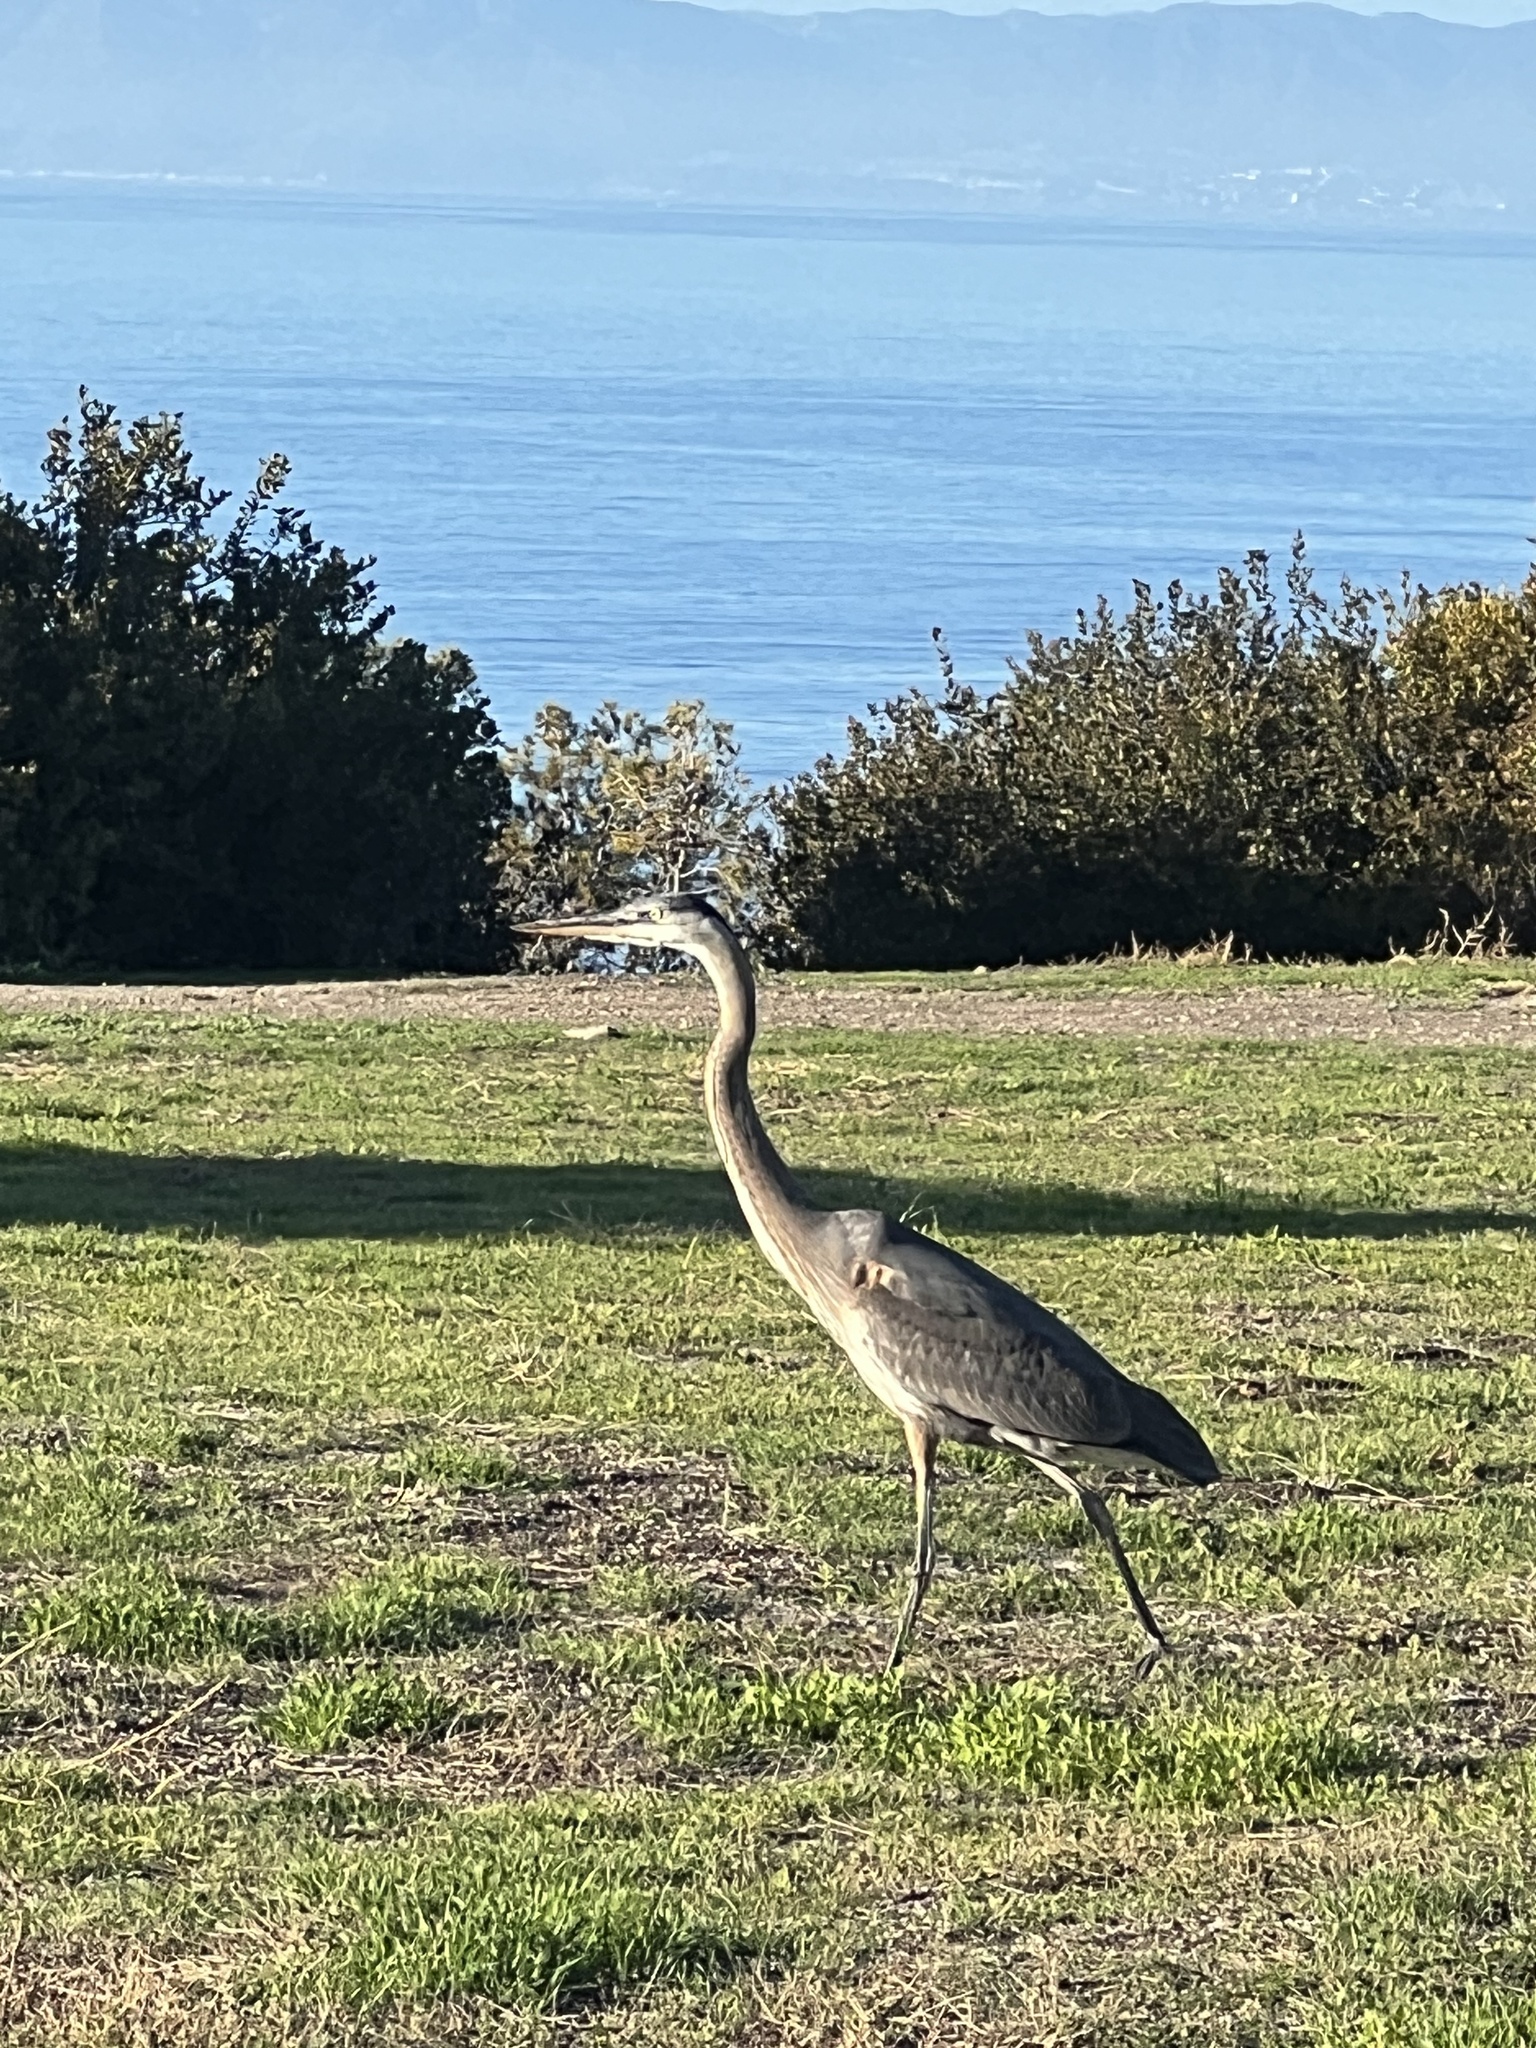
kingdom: Animalia
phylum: Chordata
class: Aves
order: Pelecaniformes
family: Ardeidae
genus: Ardea
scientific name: Ardea herodias
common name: Great blue heron
